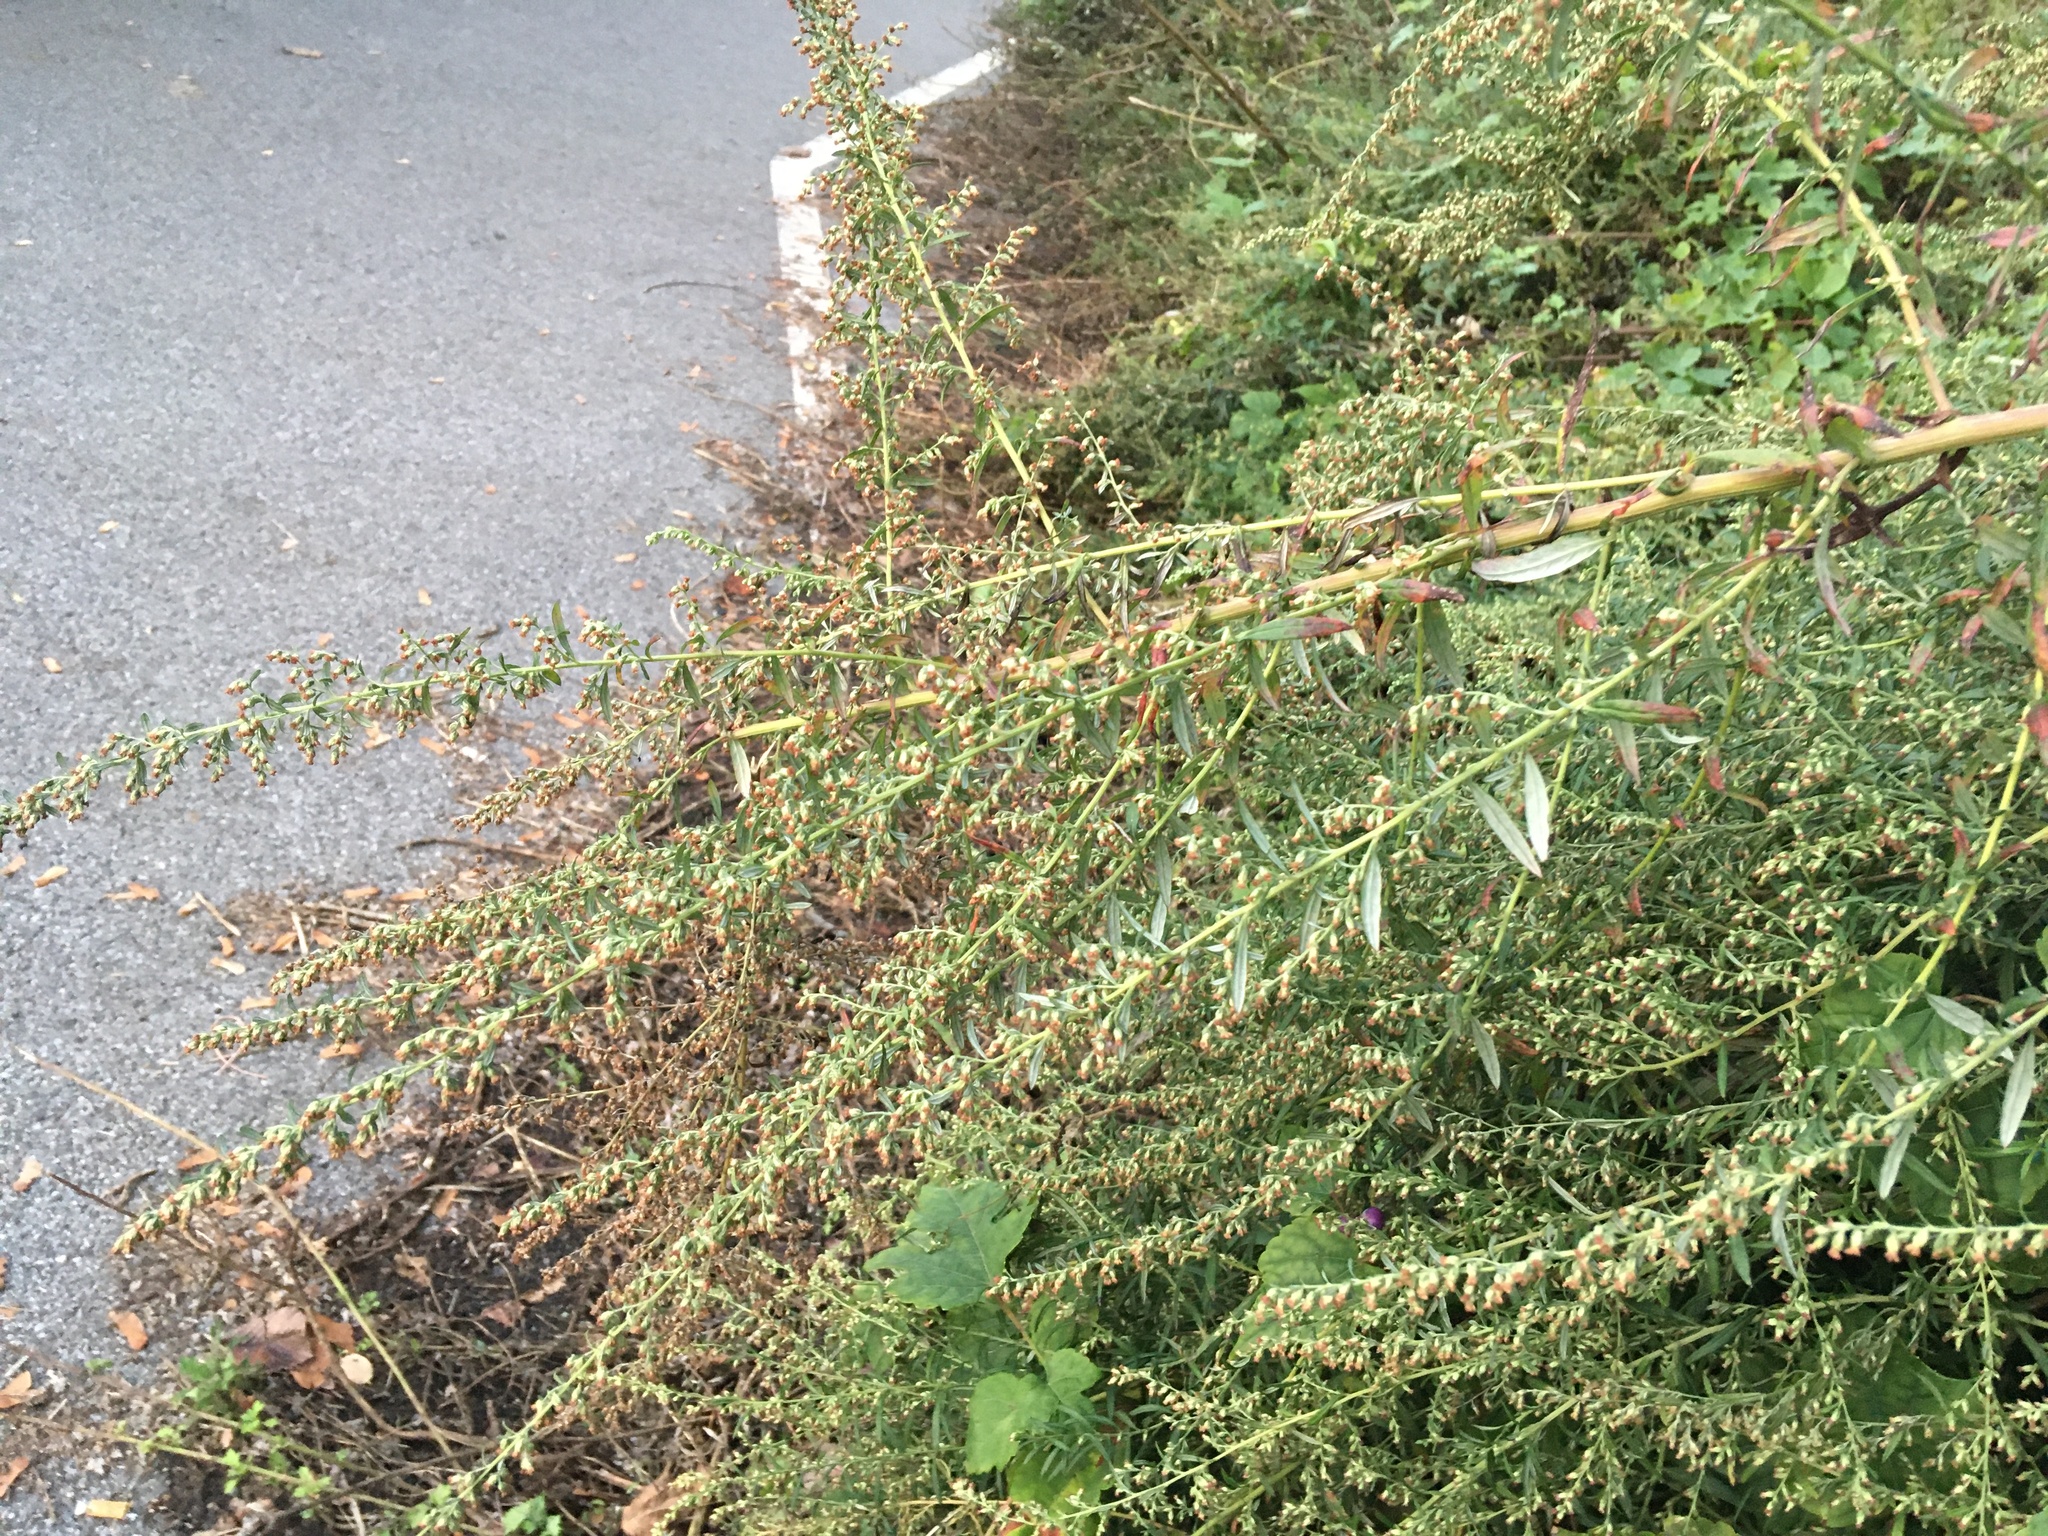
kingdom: Plantae
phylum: Tracheophyta
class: Magnoliopsida
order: Asterales
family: Asteraceae
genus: Artemisia
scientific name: Artemisia vulgaris
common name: Mugwort
